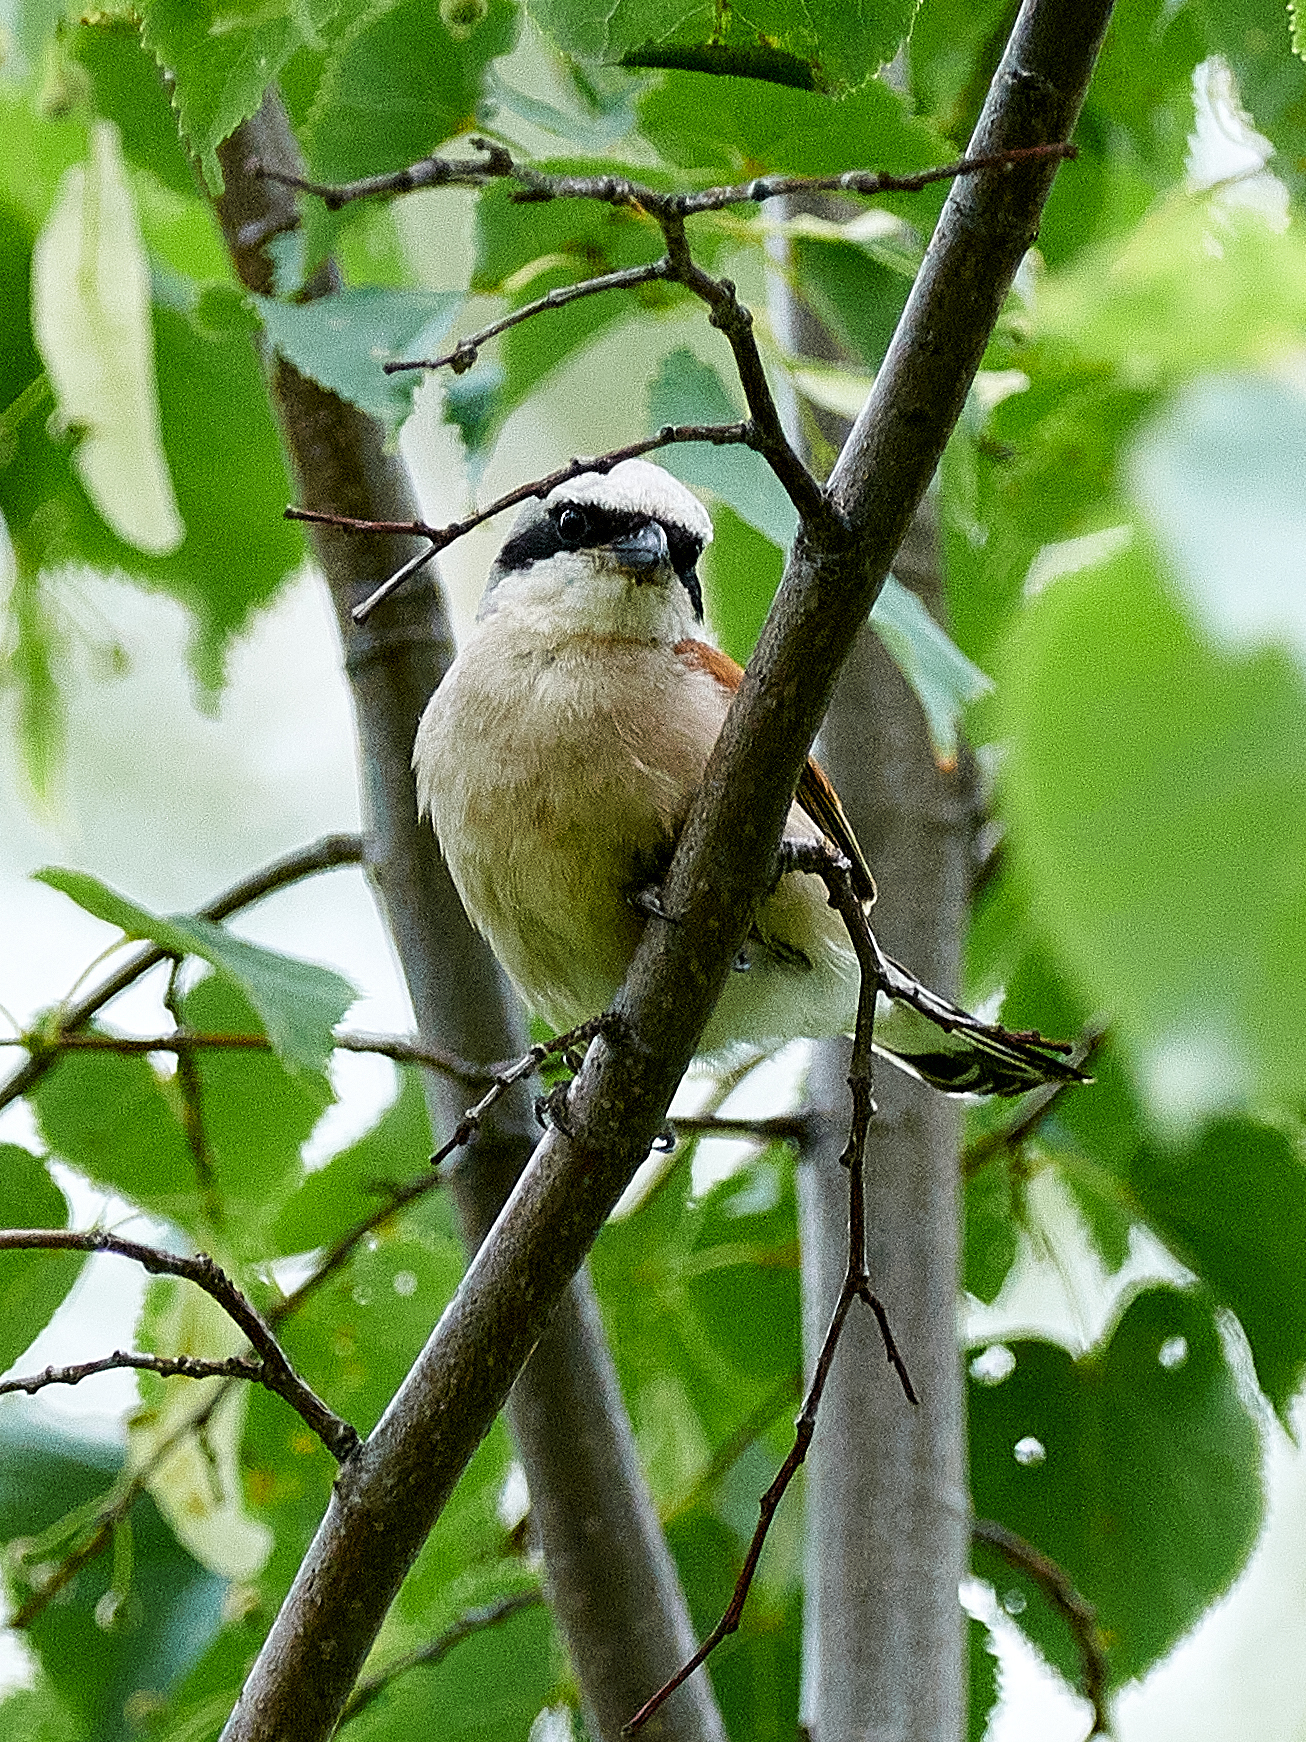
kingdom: Animalia
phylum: Chordata
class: Aves
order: Passeriformes
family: Laniidae
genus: Lanius
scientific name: Lanius collurio
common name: Red-backed shrike
